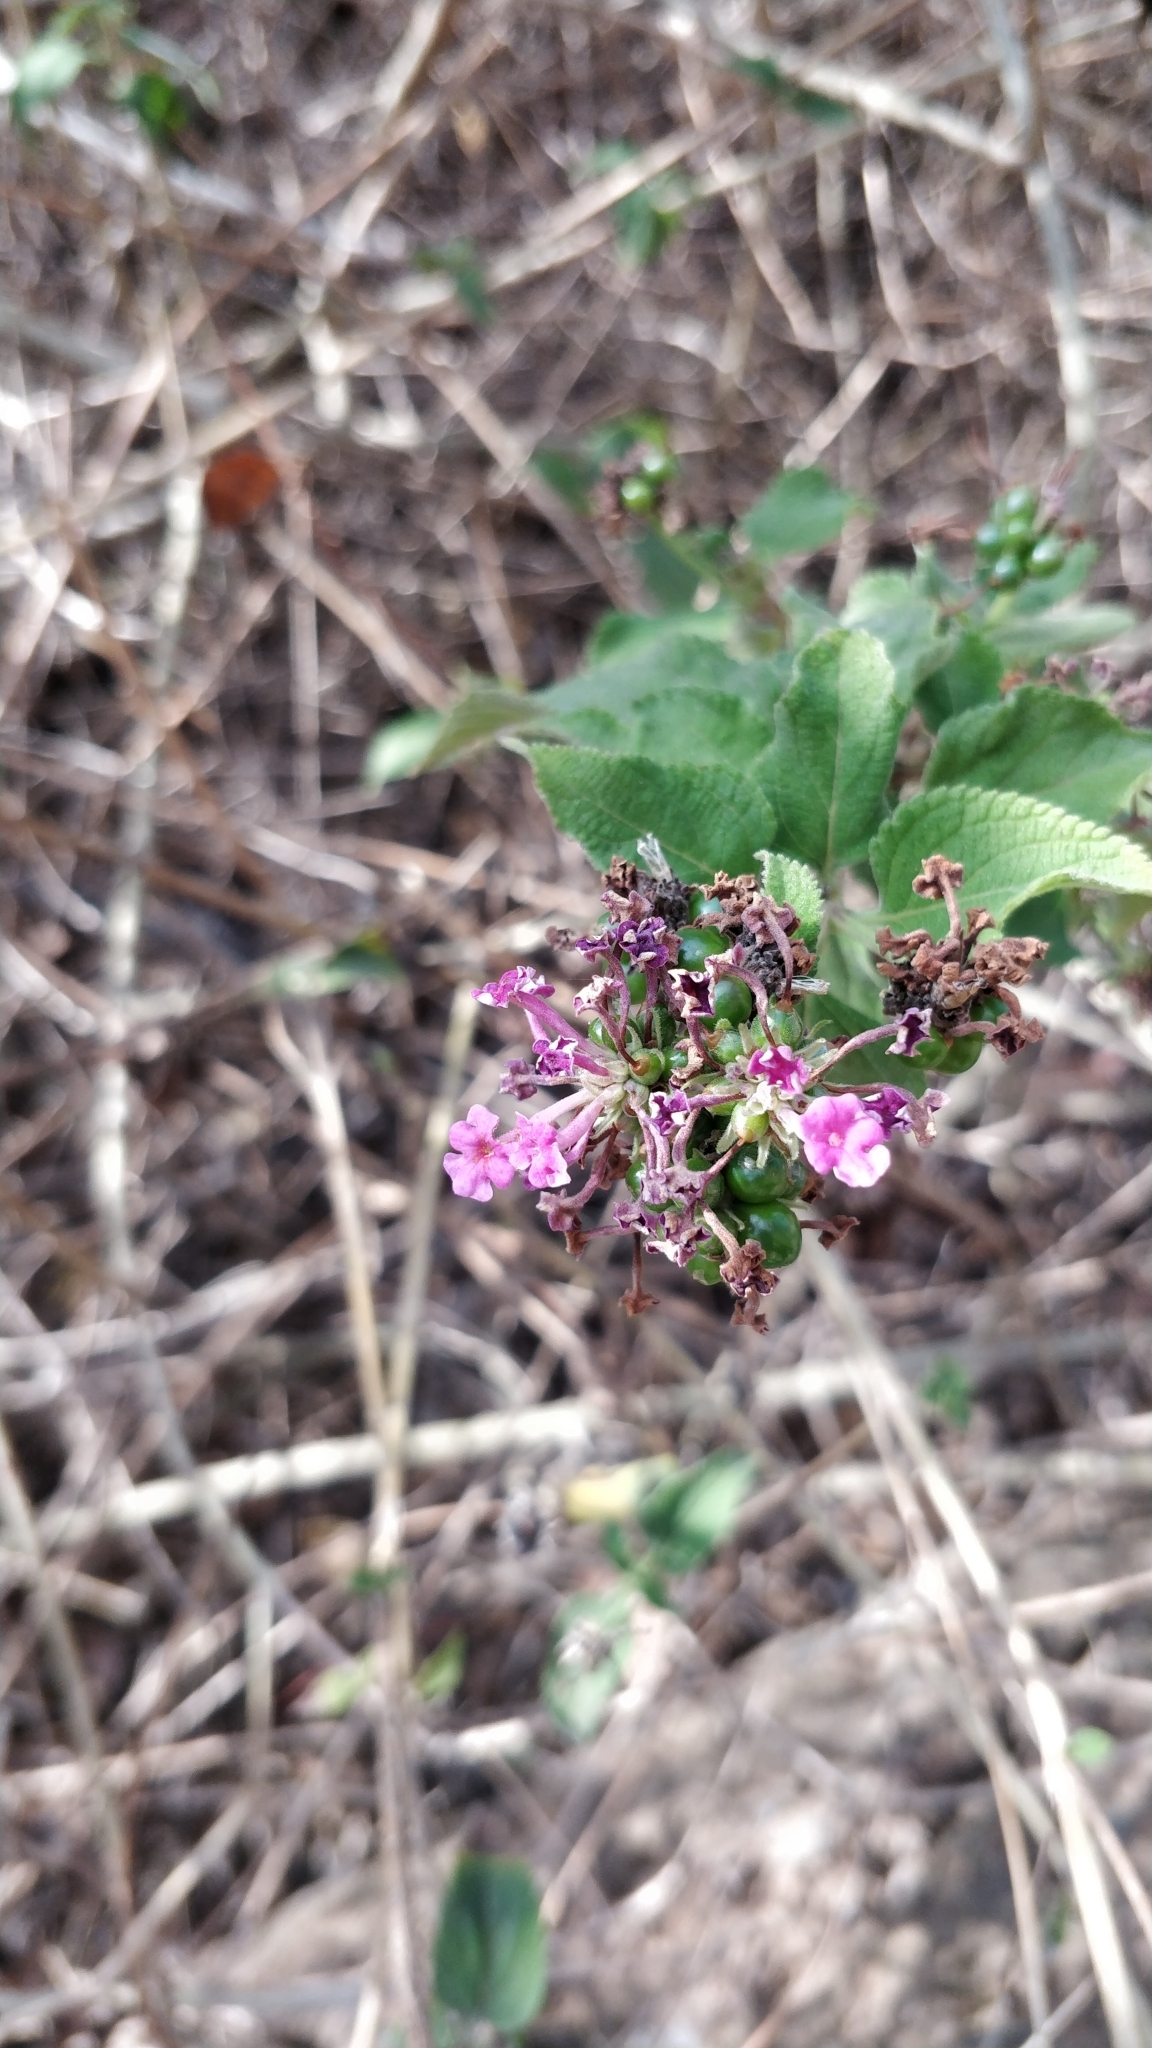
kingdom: Plantae
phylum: Tracheophyta
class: Magnoliopsida
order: Lamiales
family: Verbenaceae
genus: Lantana
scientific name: Lantana camara
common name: Lantana
